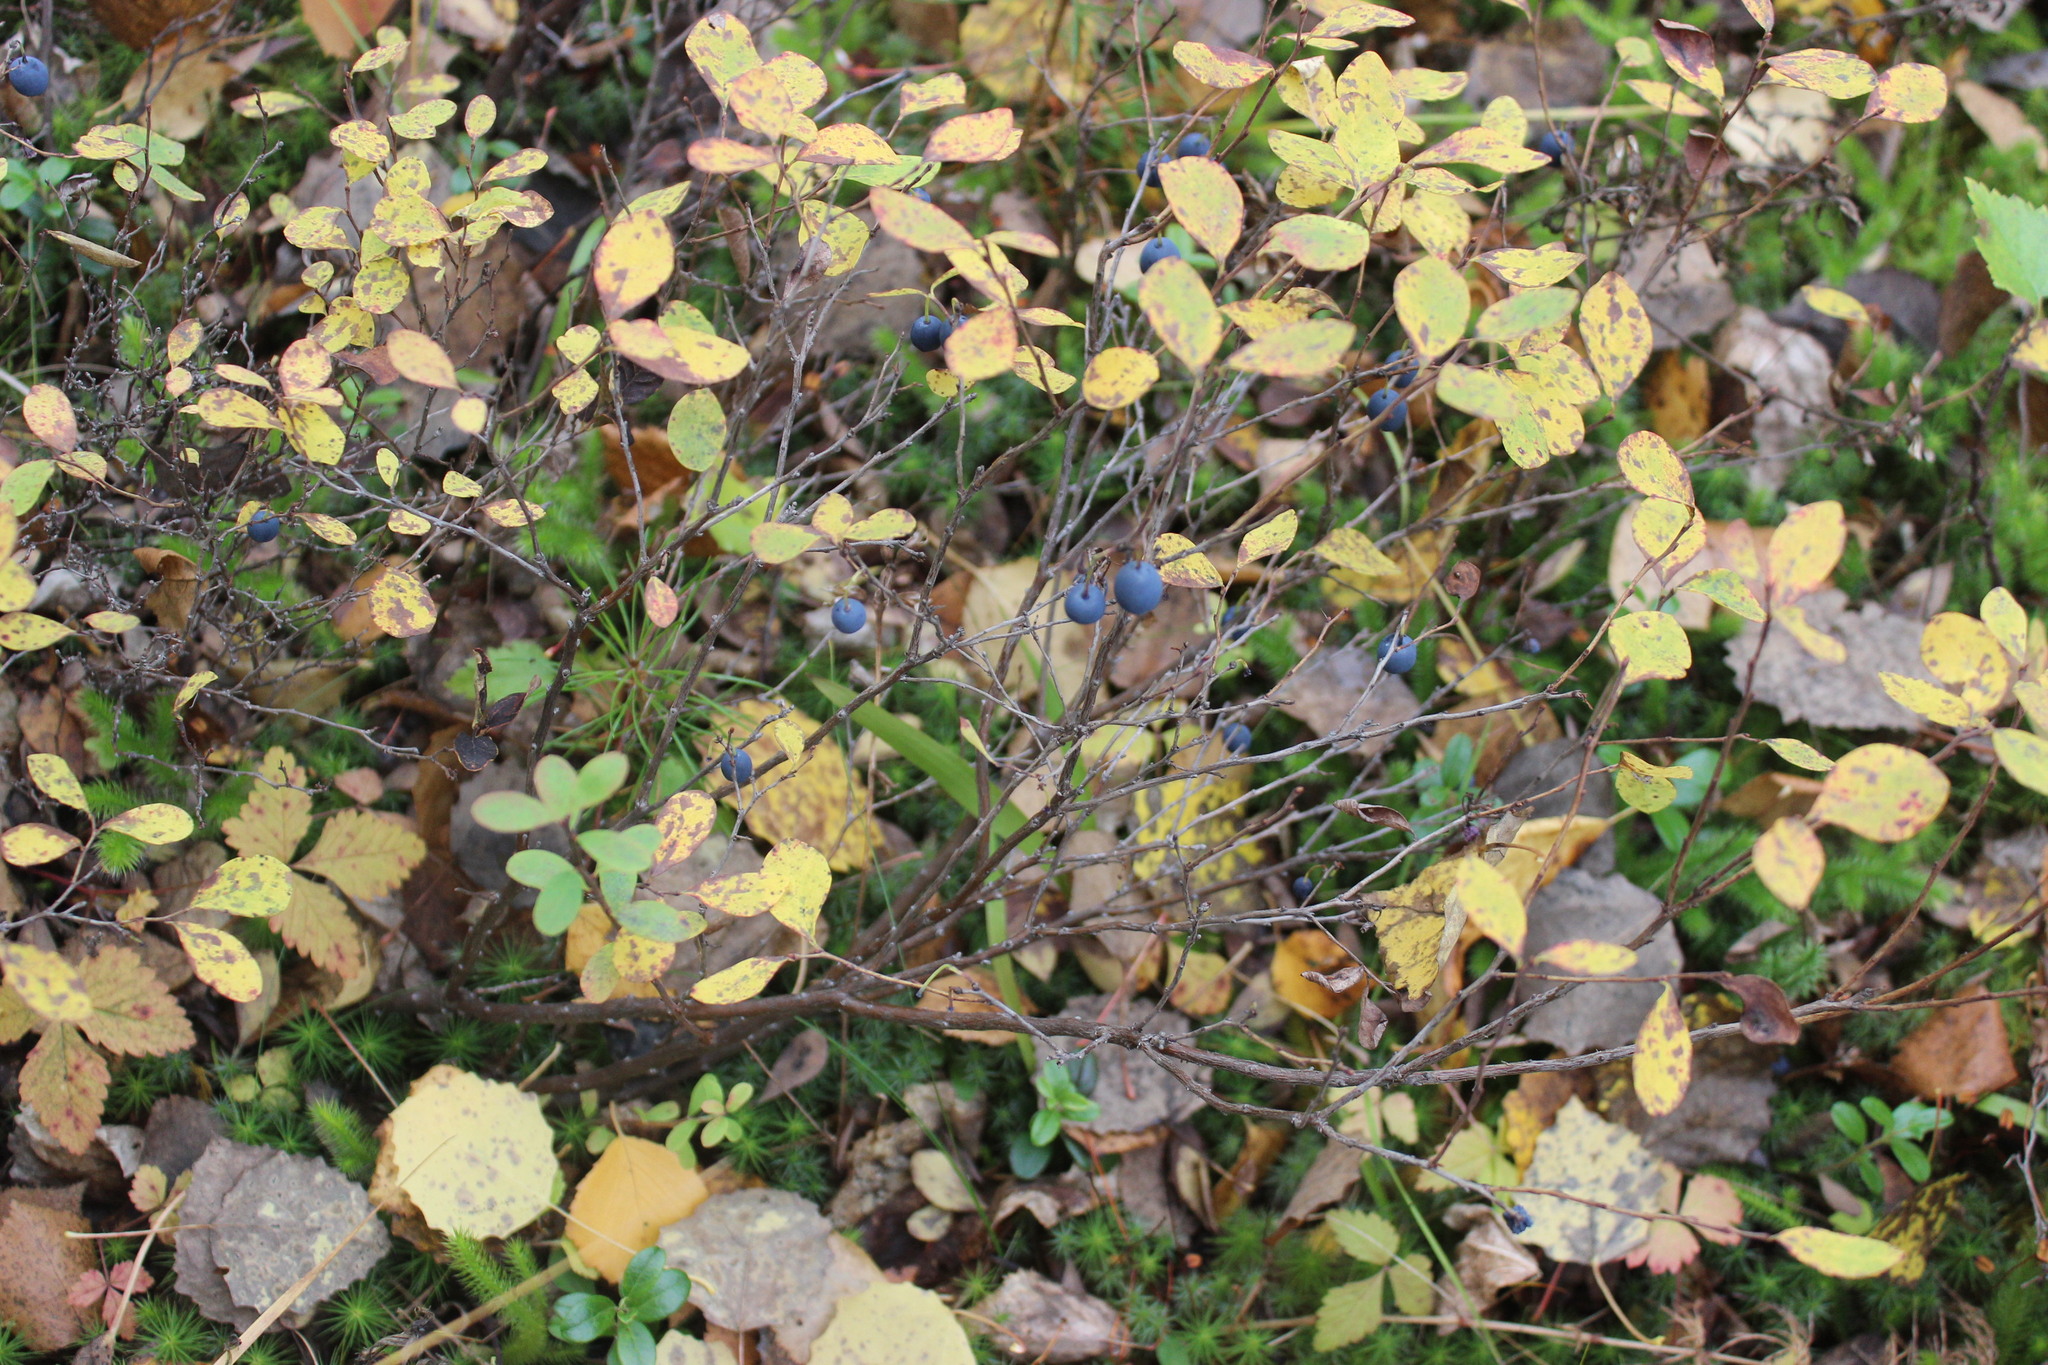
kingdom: Plantae
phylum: Tracheophyta
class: Magnoliopsida
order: Ericales
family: Ericaceae
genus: Vaccinium
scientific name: Vaccinium uliginosum
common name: Bog bilberry
